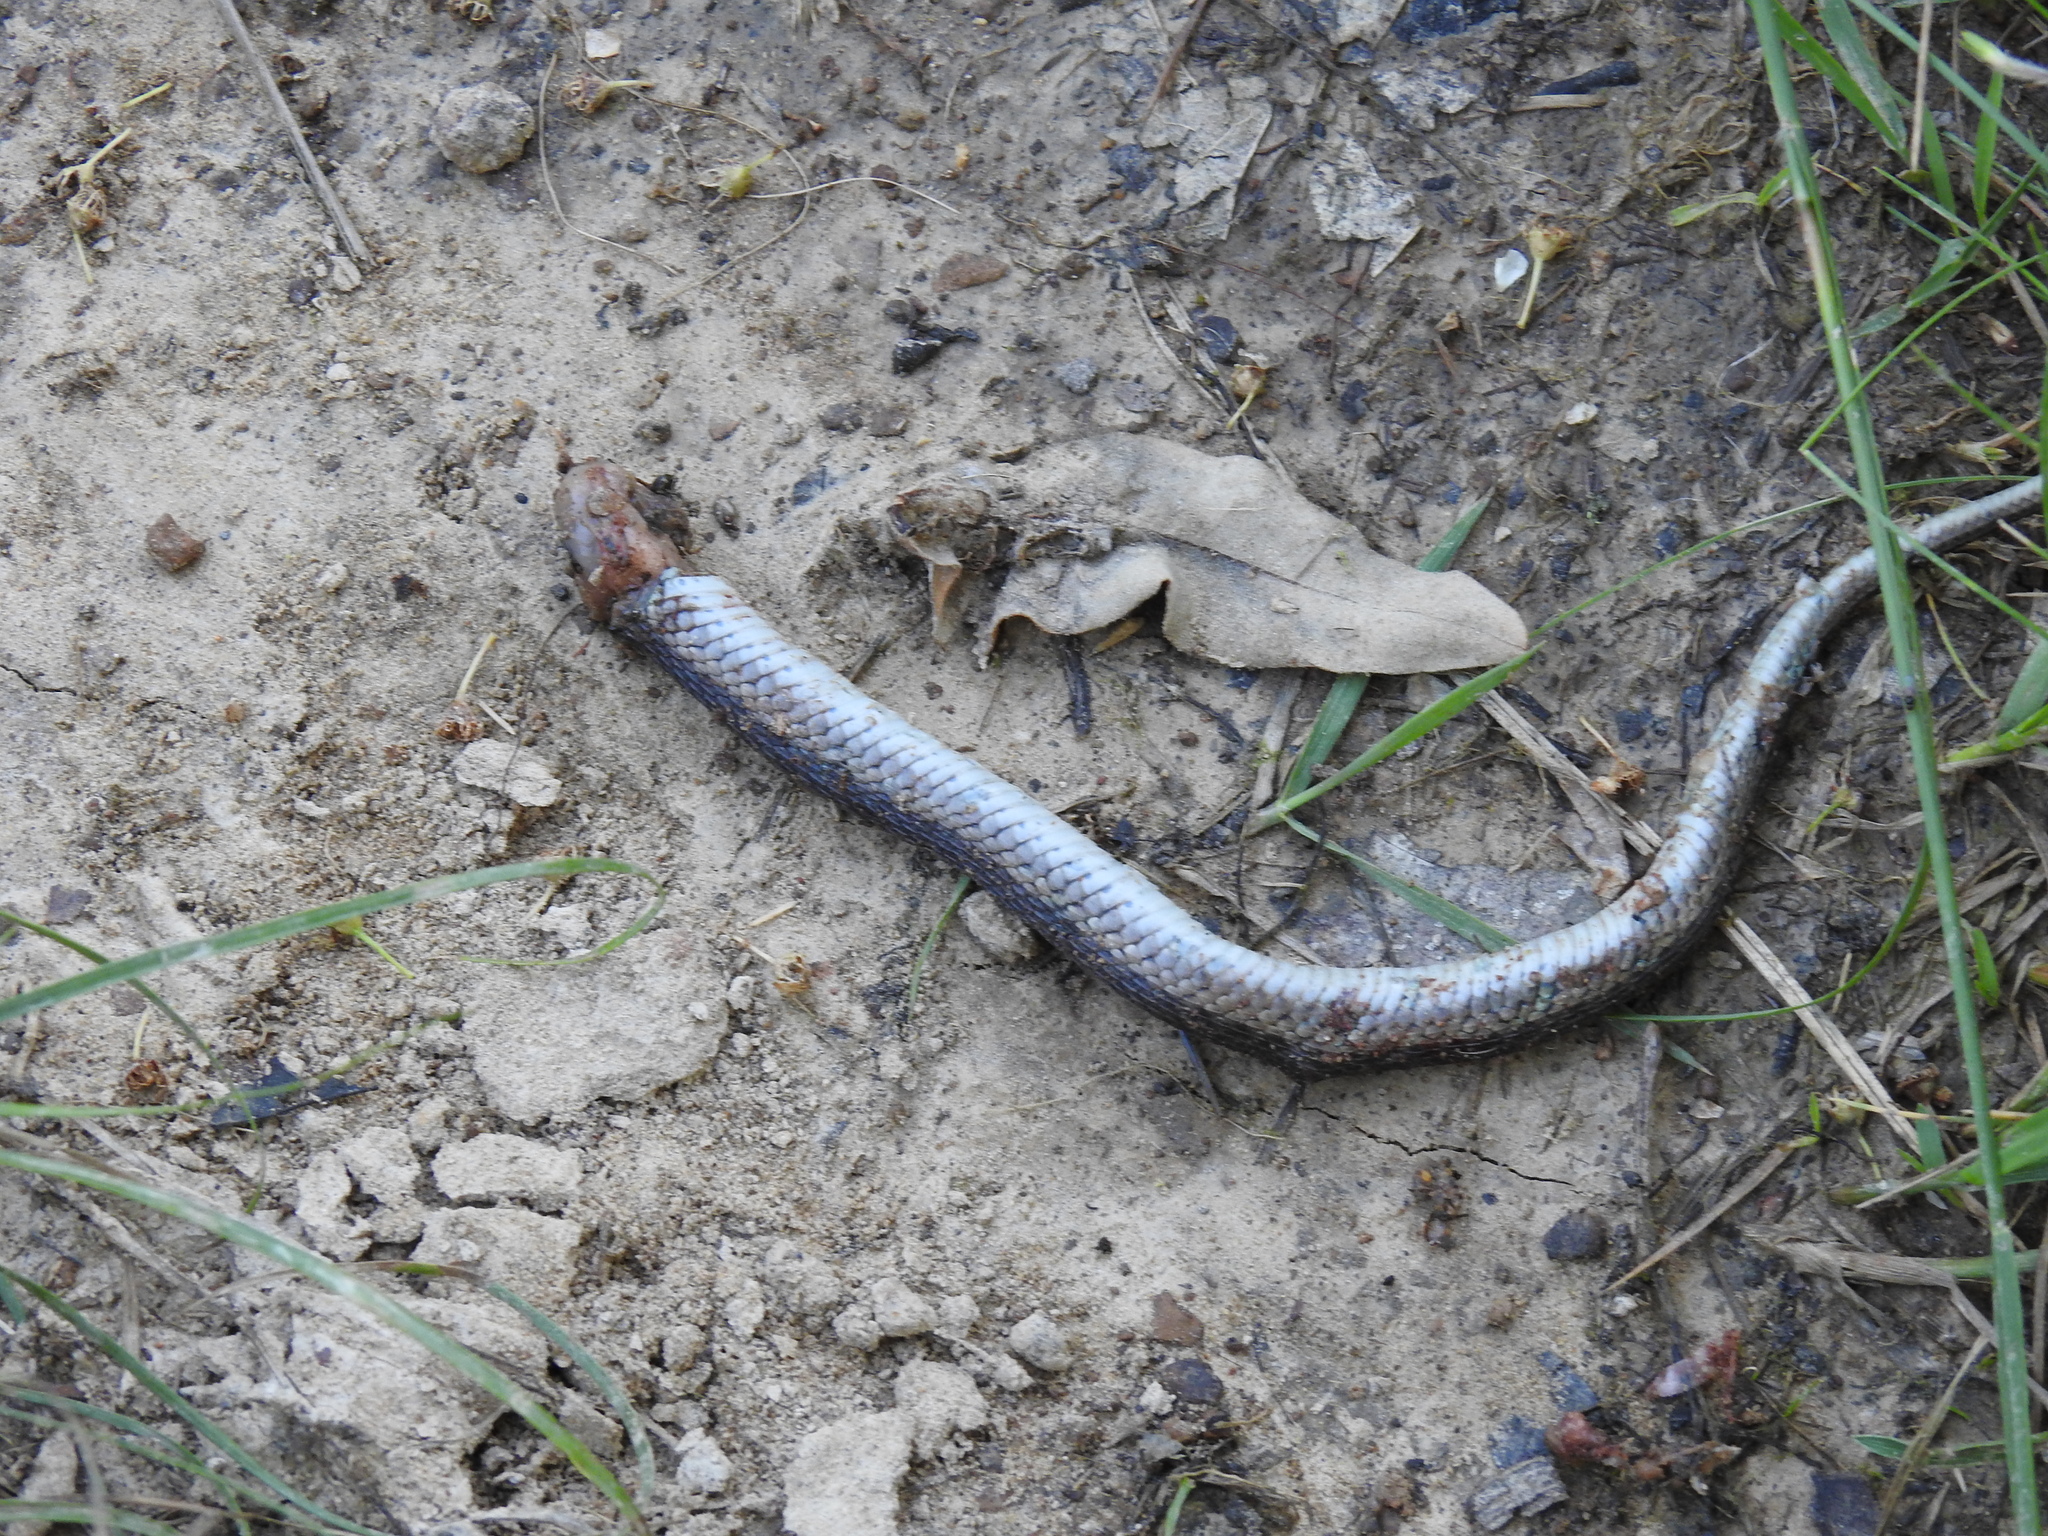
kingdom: Animalia
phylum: Chordata
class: Squamata
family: Colubridae
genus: Thamnophis
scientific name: Thamnophis sirtalis
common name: Common garter snake
